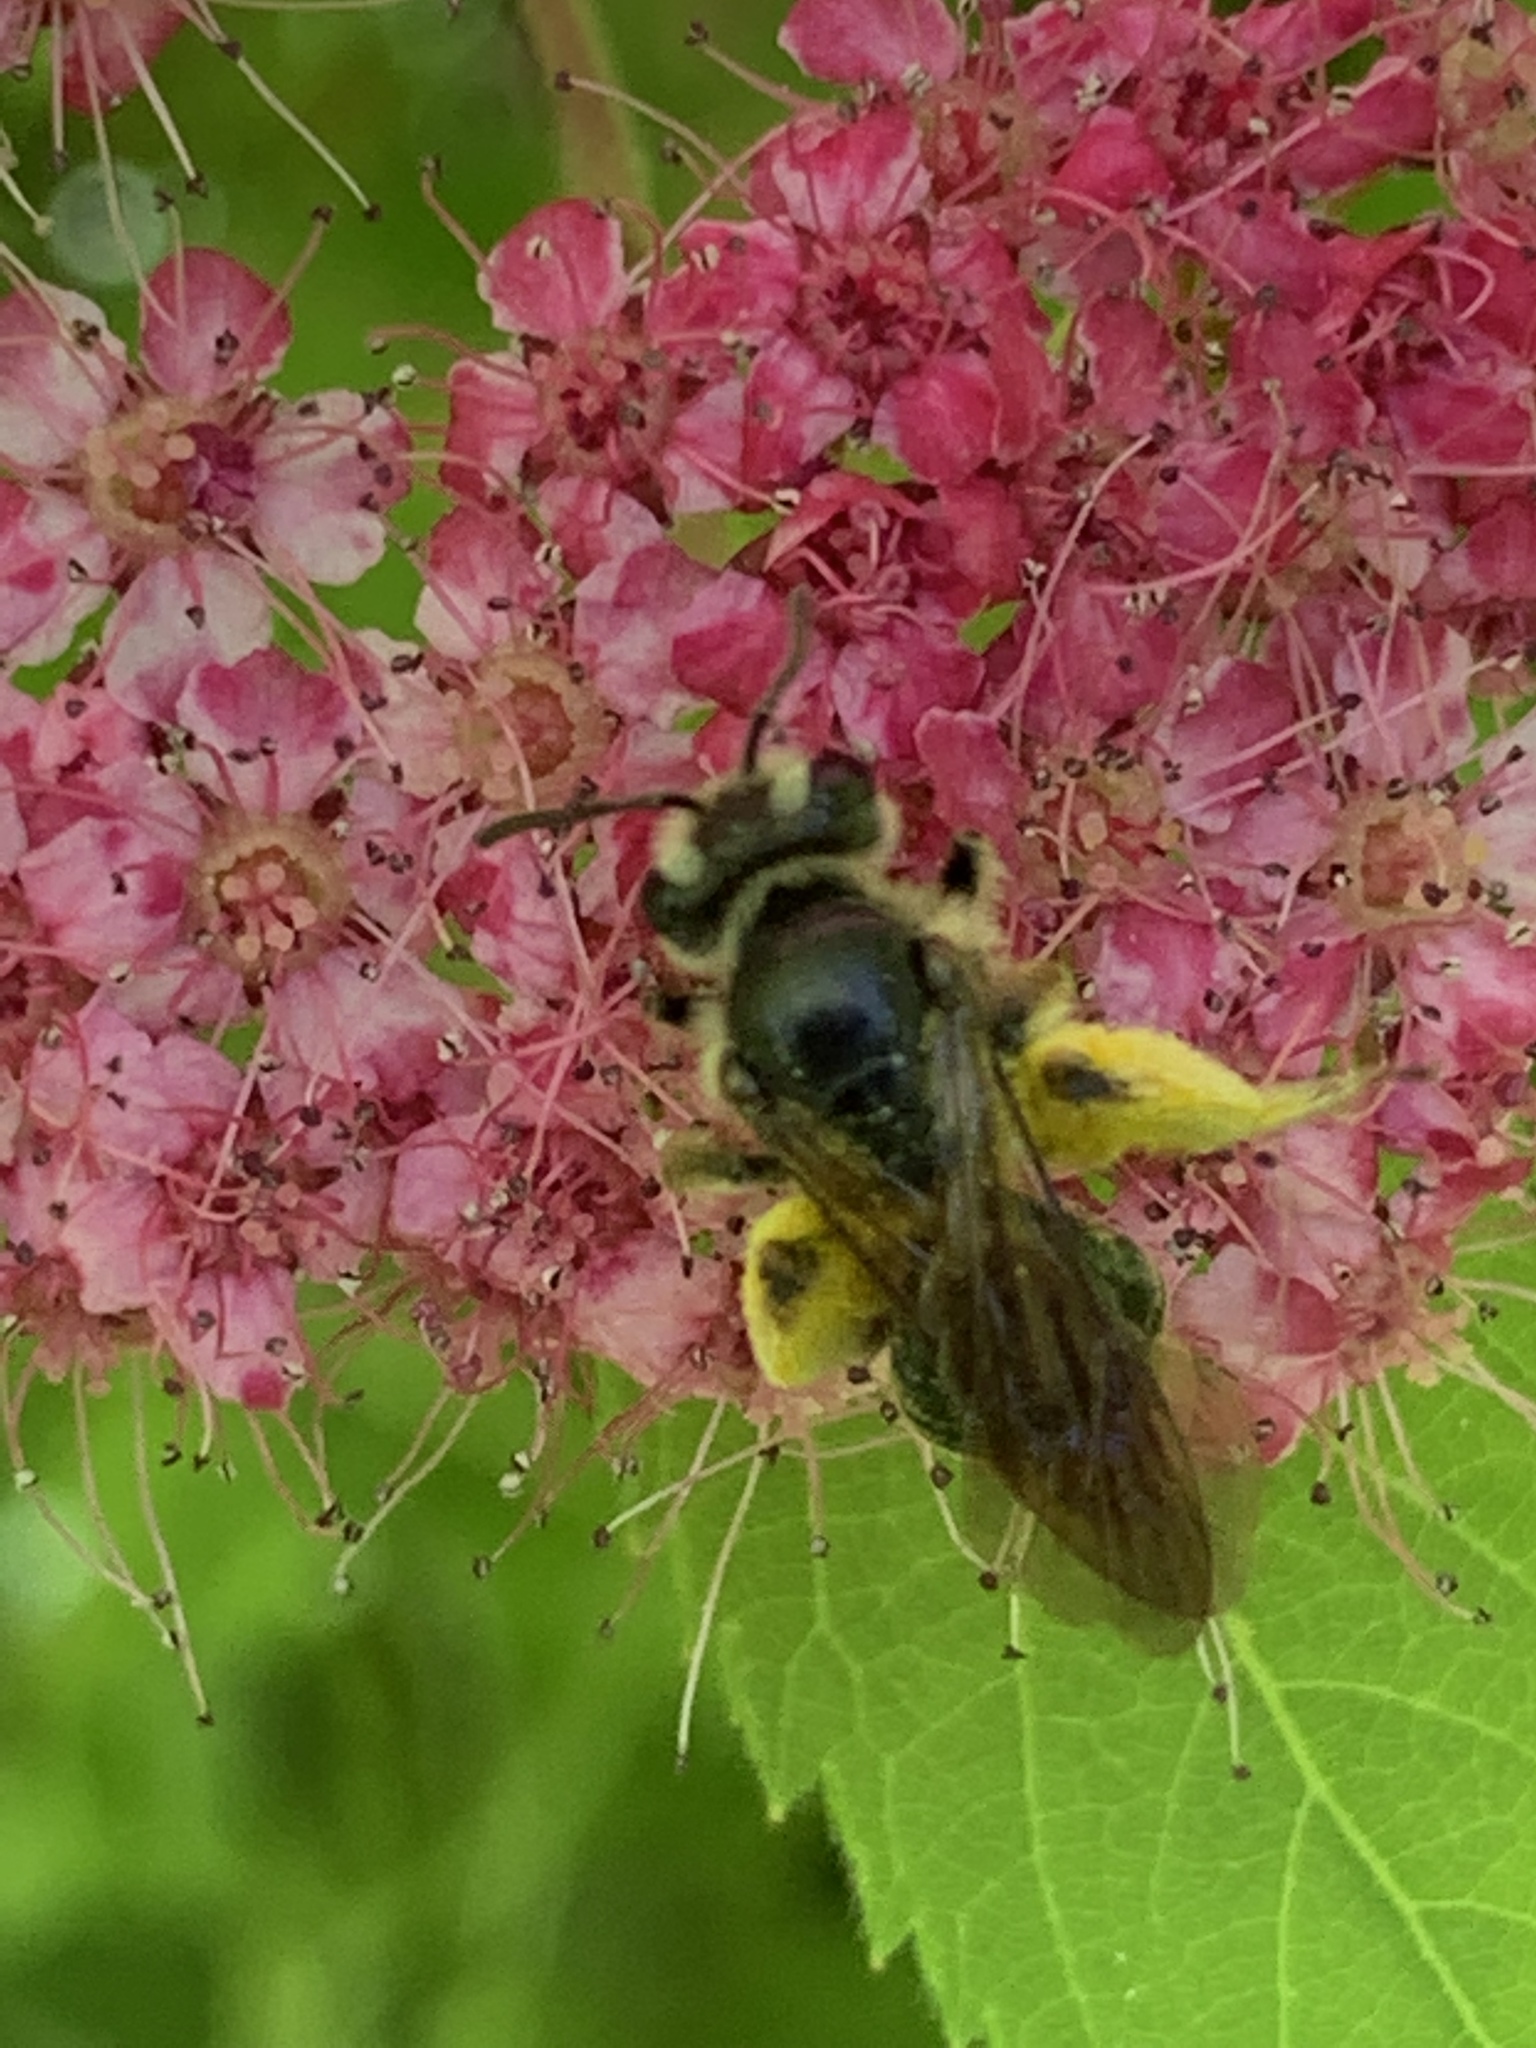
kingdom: Animalia
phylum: Arthropoda
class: Insecta
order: Hymenoptera
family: Andrenidae
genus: Andrena
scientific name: Andrena
